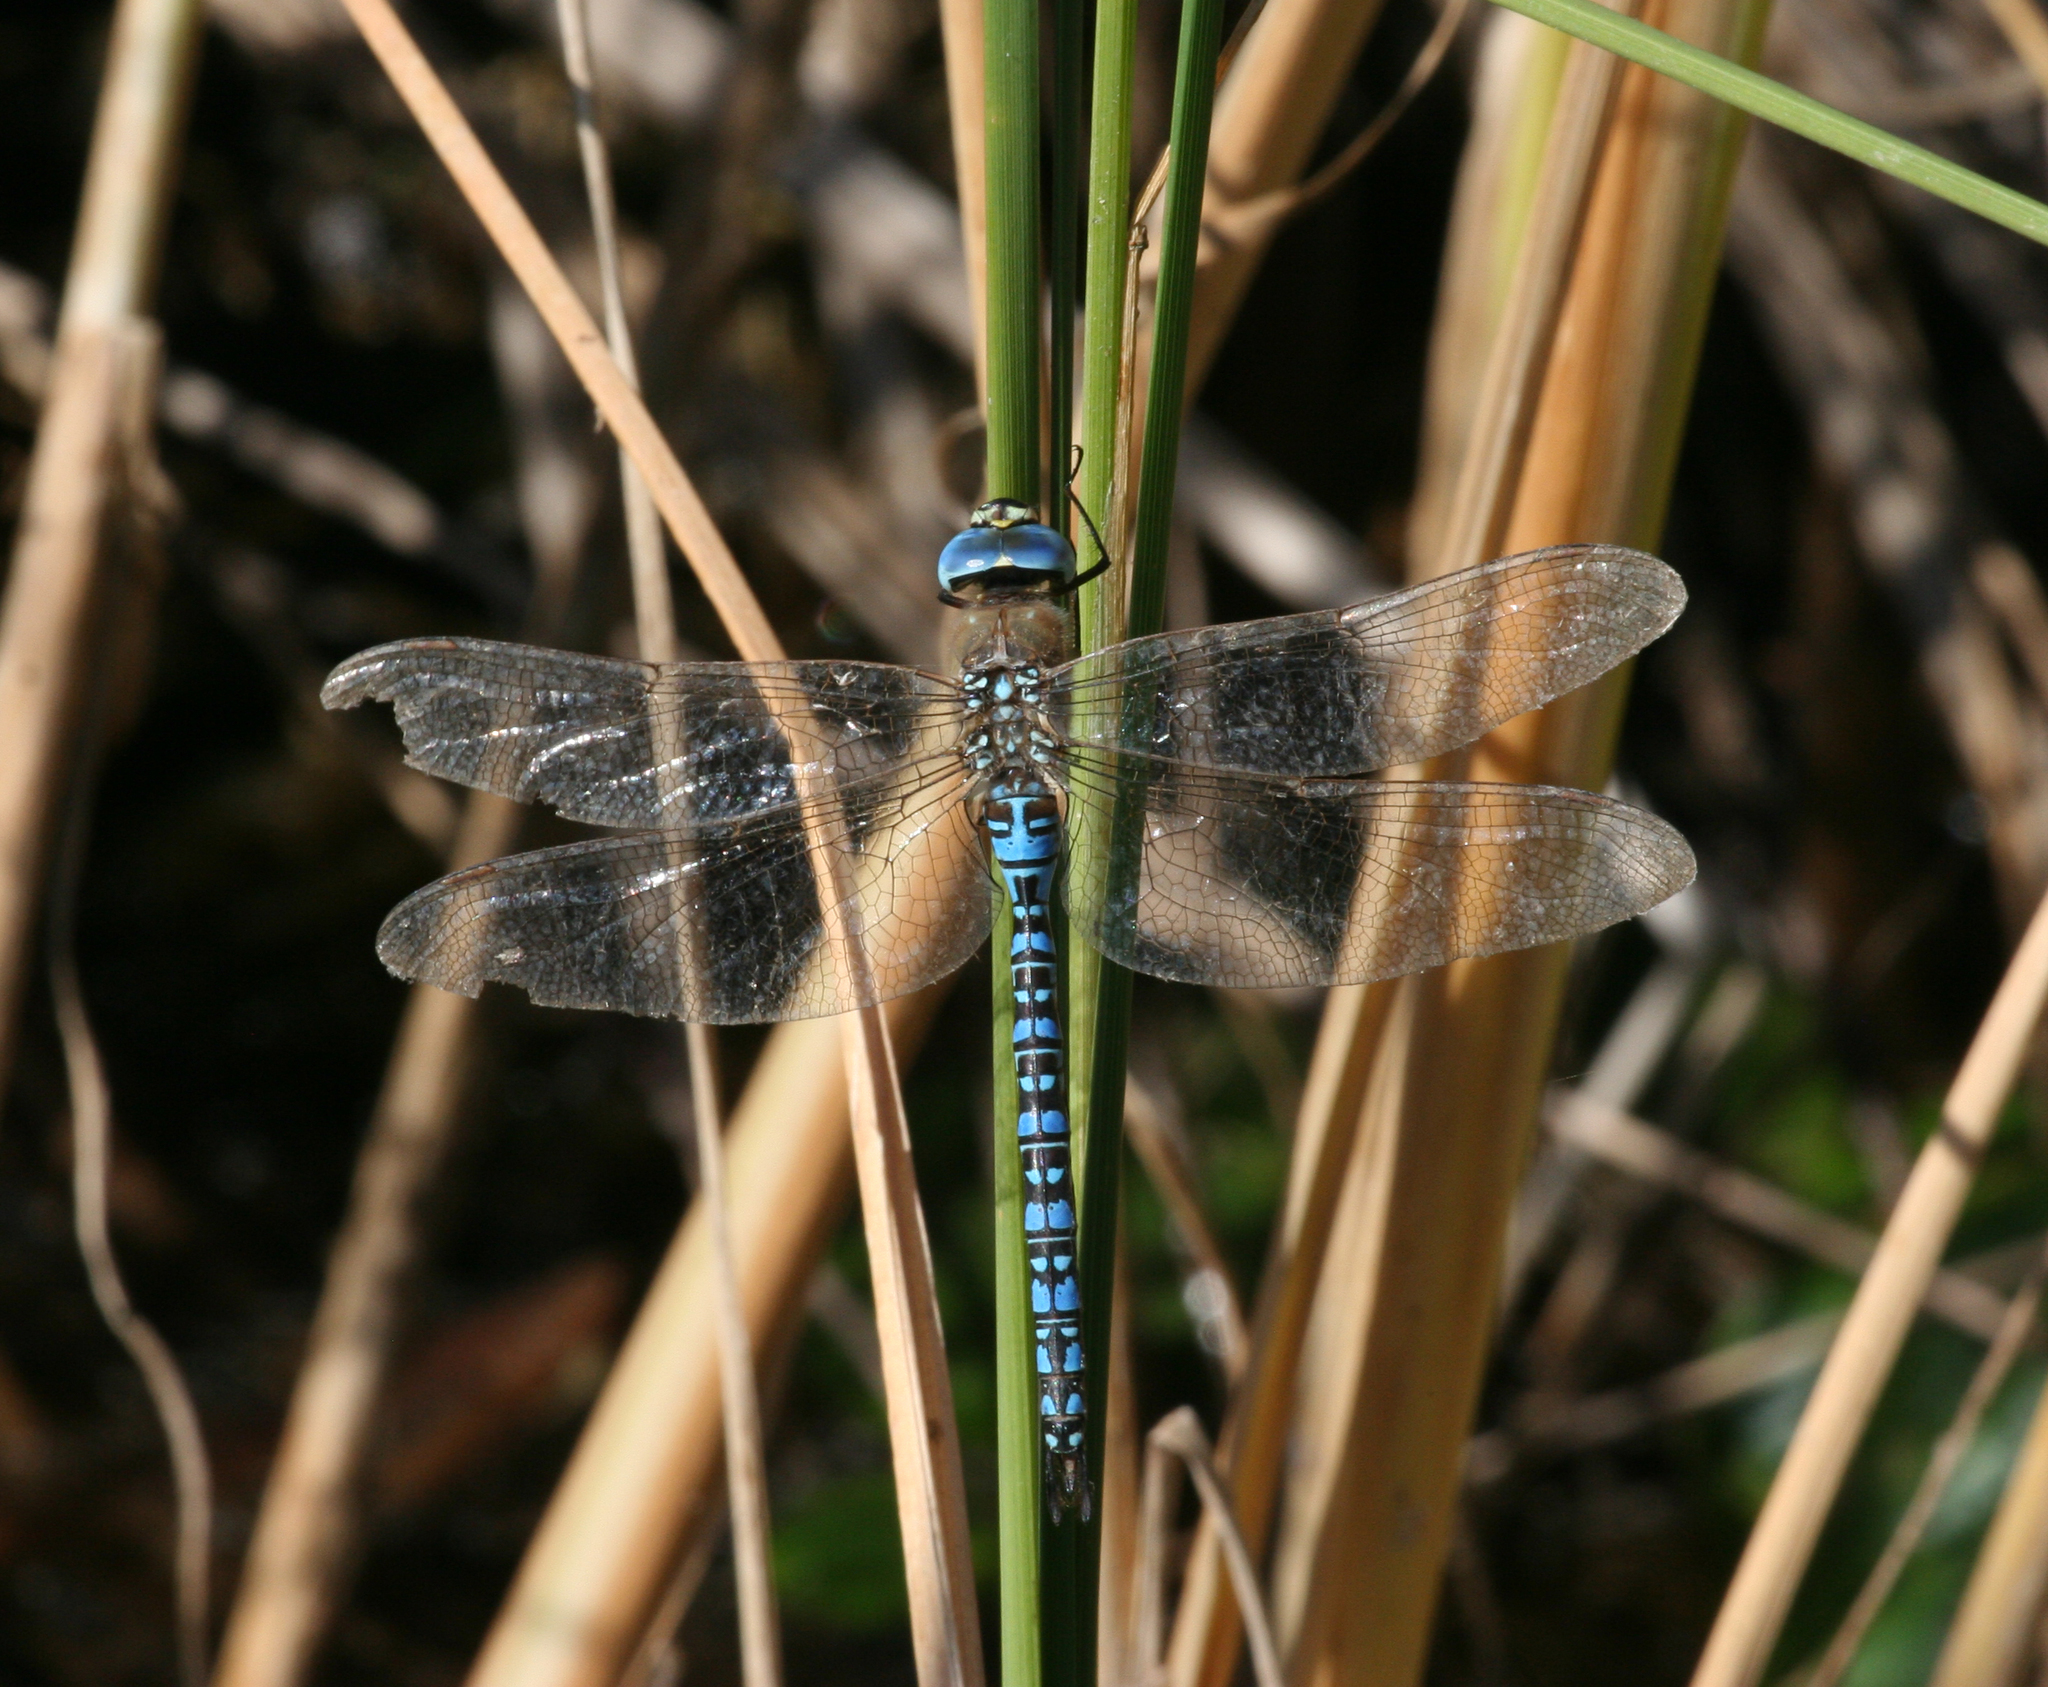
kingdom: Animalia
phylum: Arthropoda
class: Insecta
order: Odonata
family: Aeshnidae
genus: Aeshna
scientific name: Aeshna soneharai
